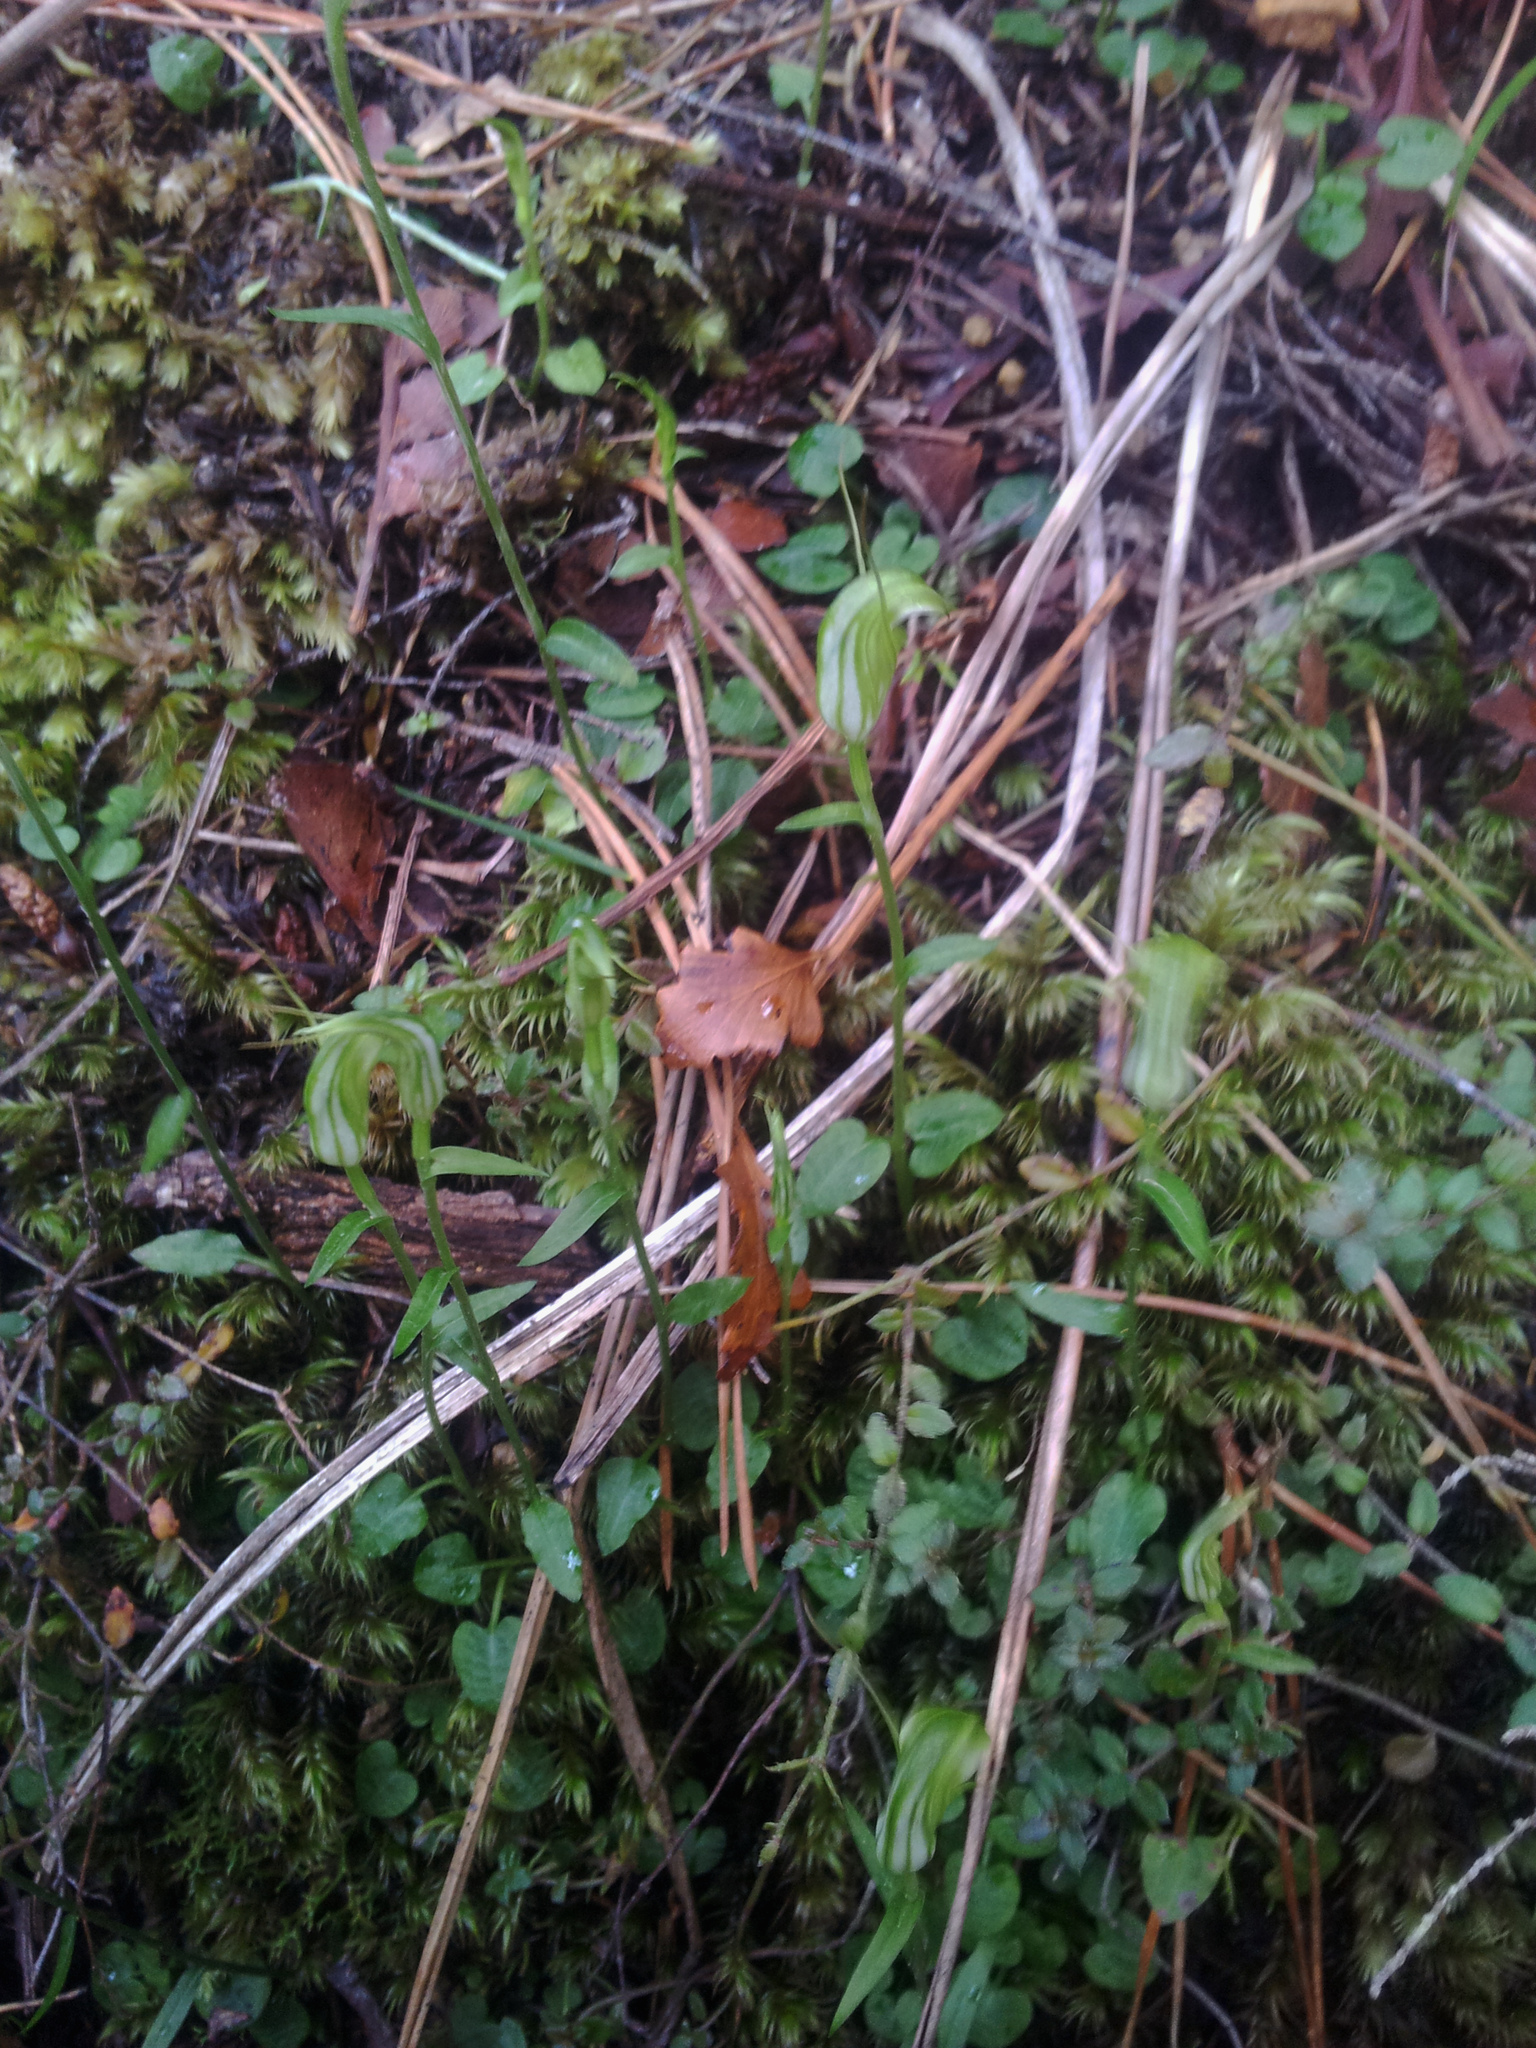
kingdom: Plantae
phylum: Tracheophyta
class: Liliopsida
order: Asparagales
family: Orchidaceae
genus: Pterostylis
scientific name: Pterostylis trullifolia
